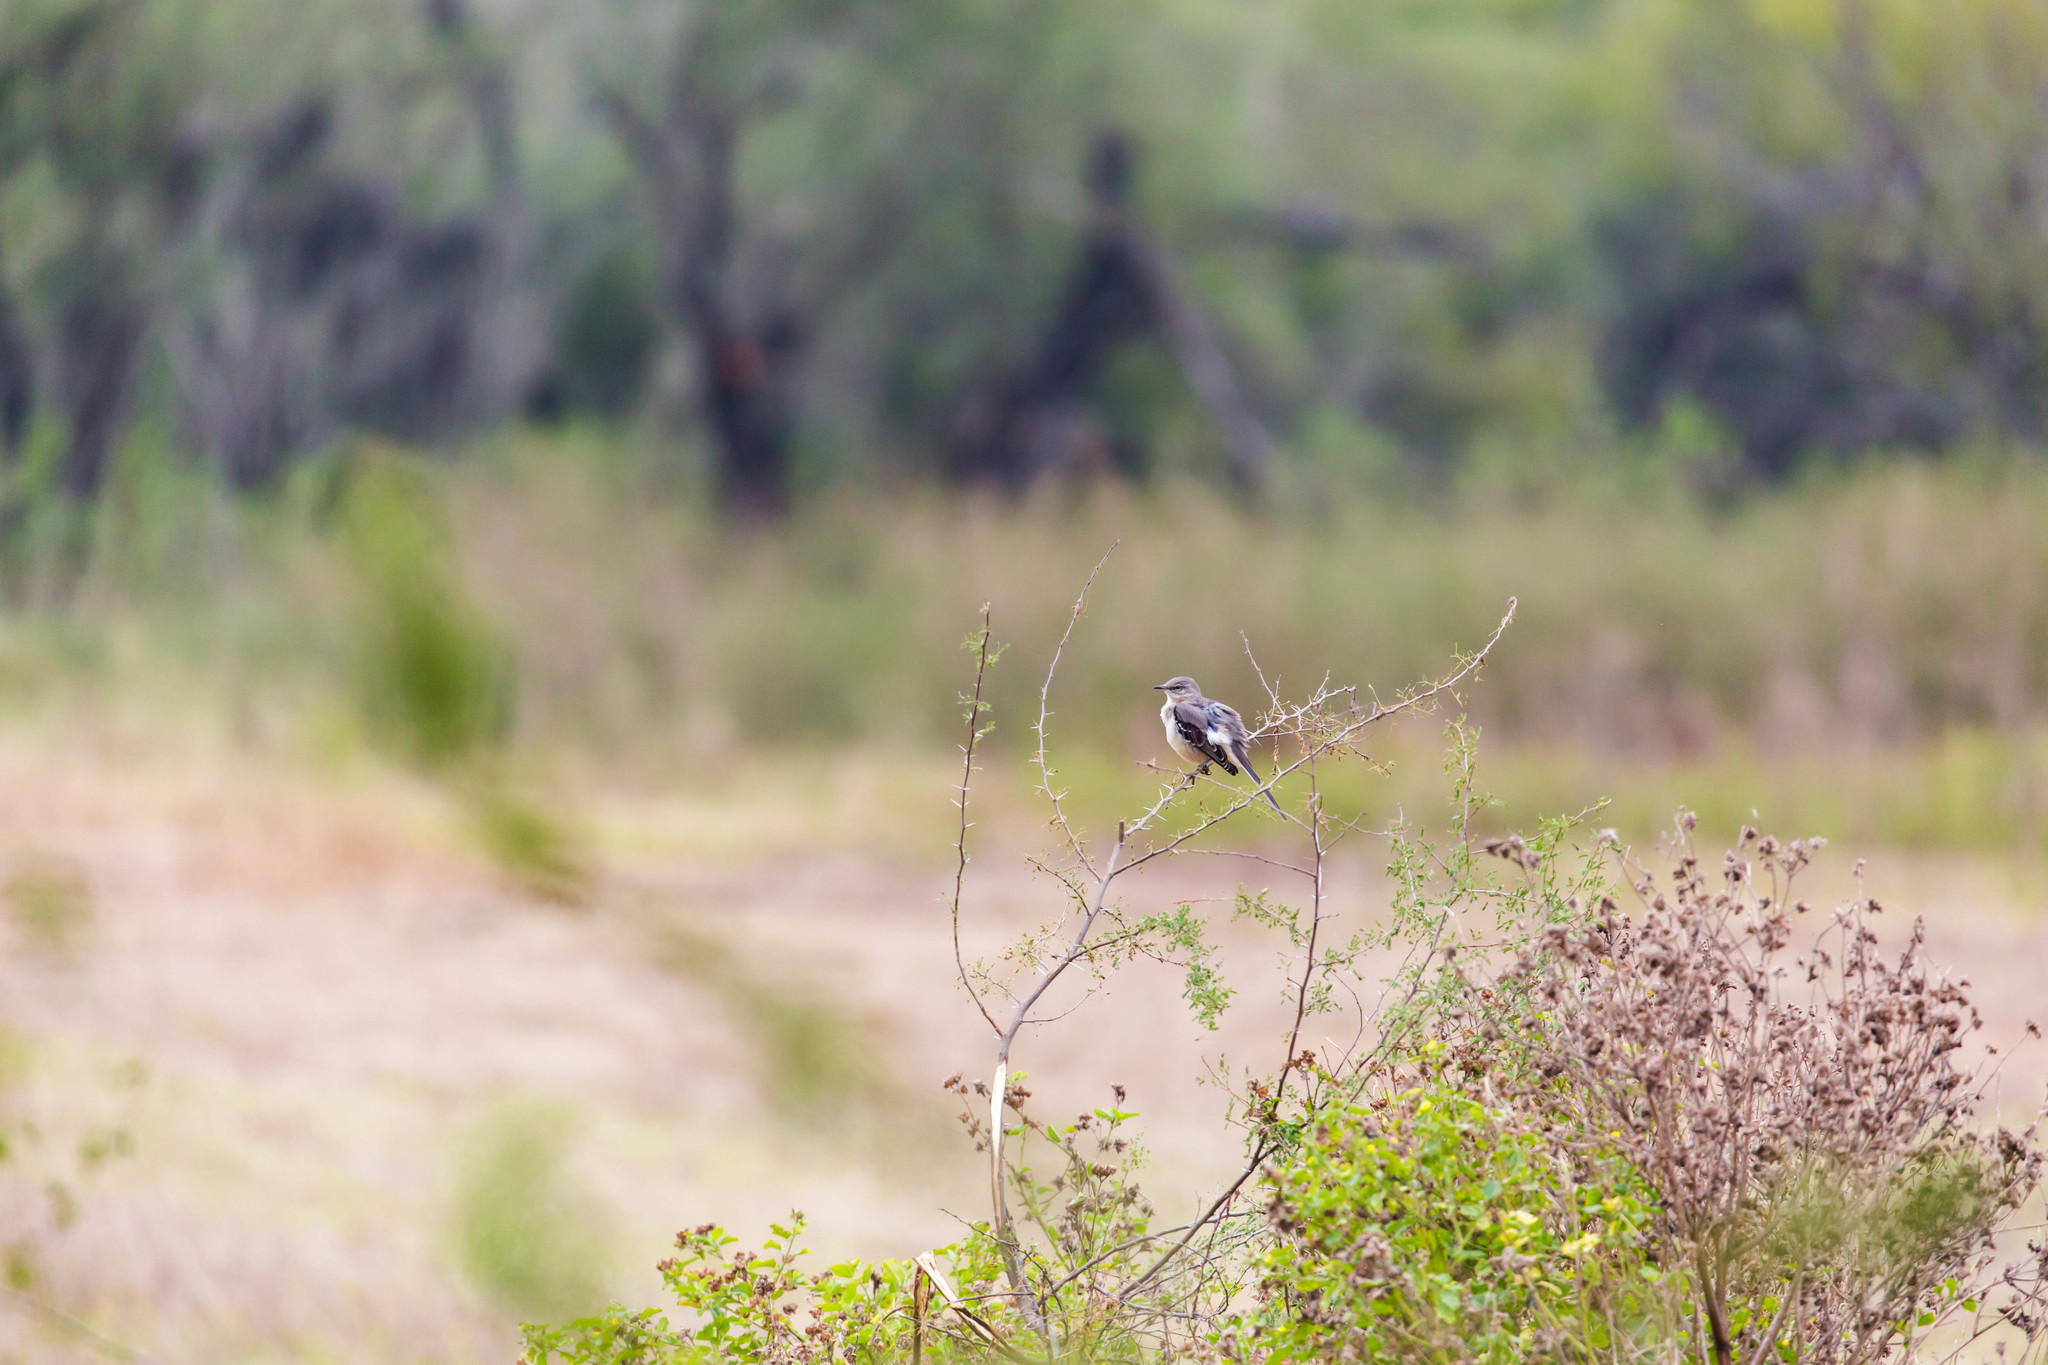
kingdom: Animalia
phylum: Chordata
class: Aves
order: Passeriformes
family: Mimidae
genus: Mimus
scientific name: Mimus polyglottos
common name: Northern mockingbird
